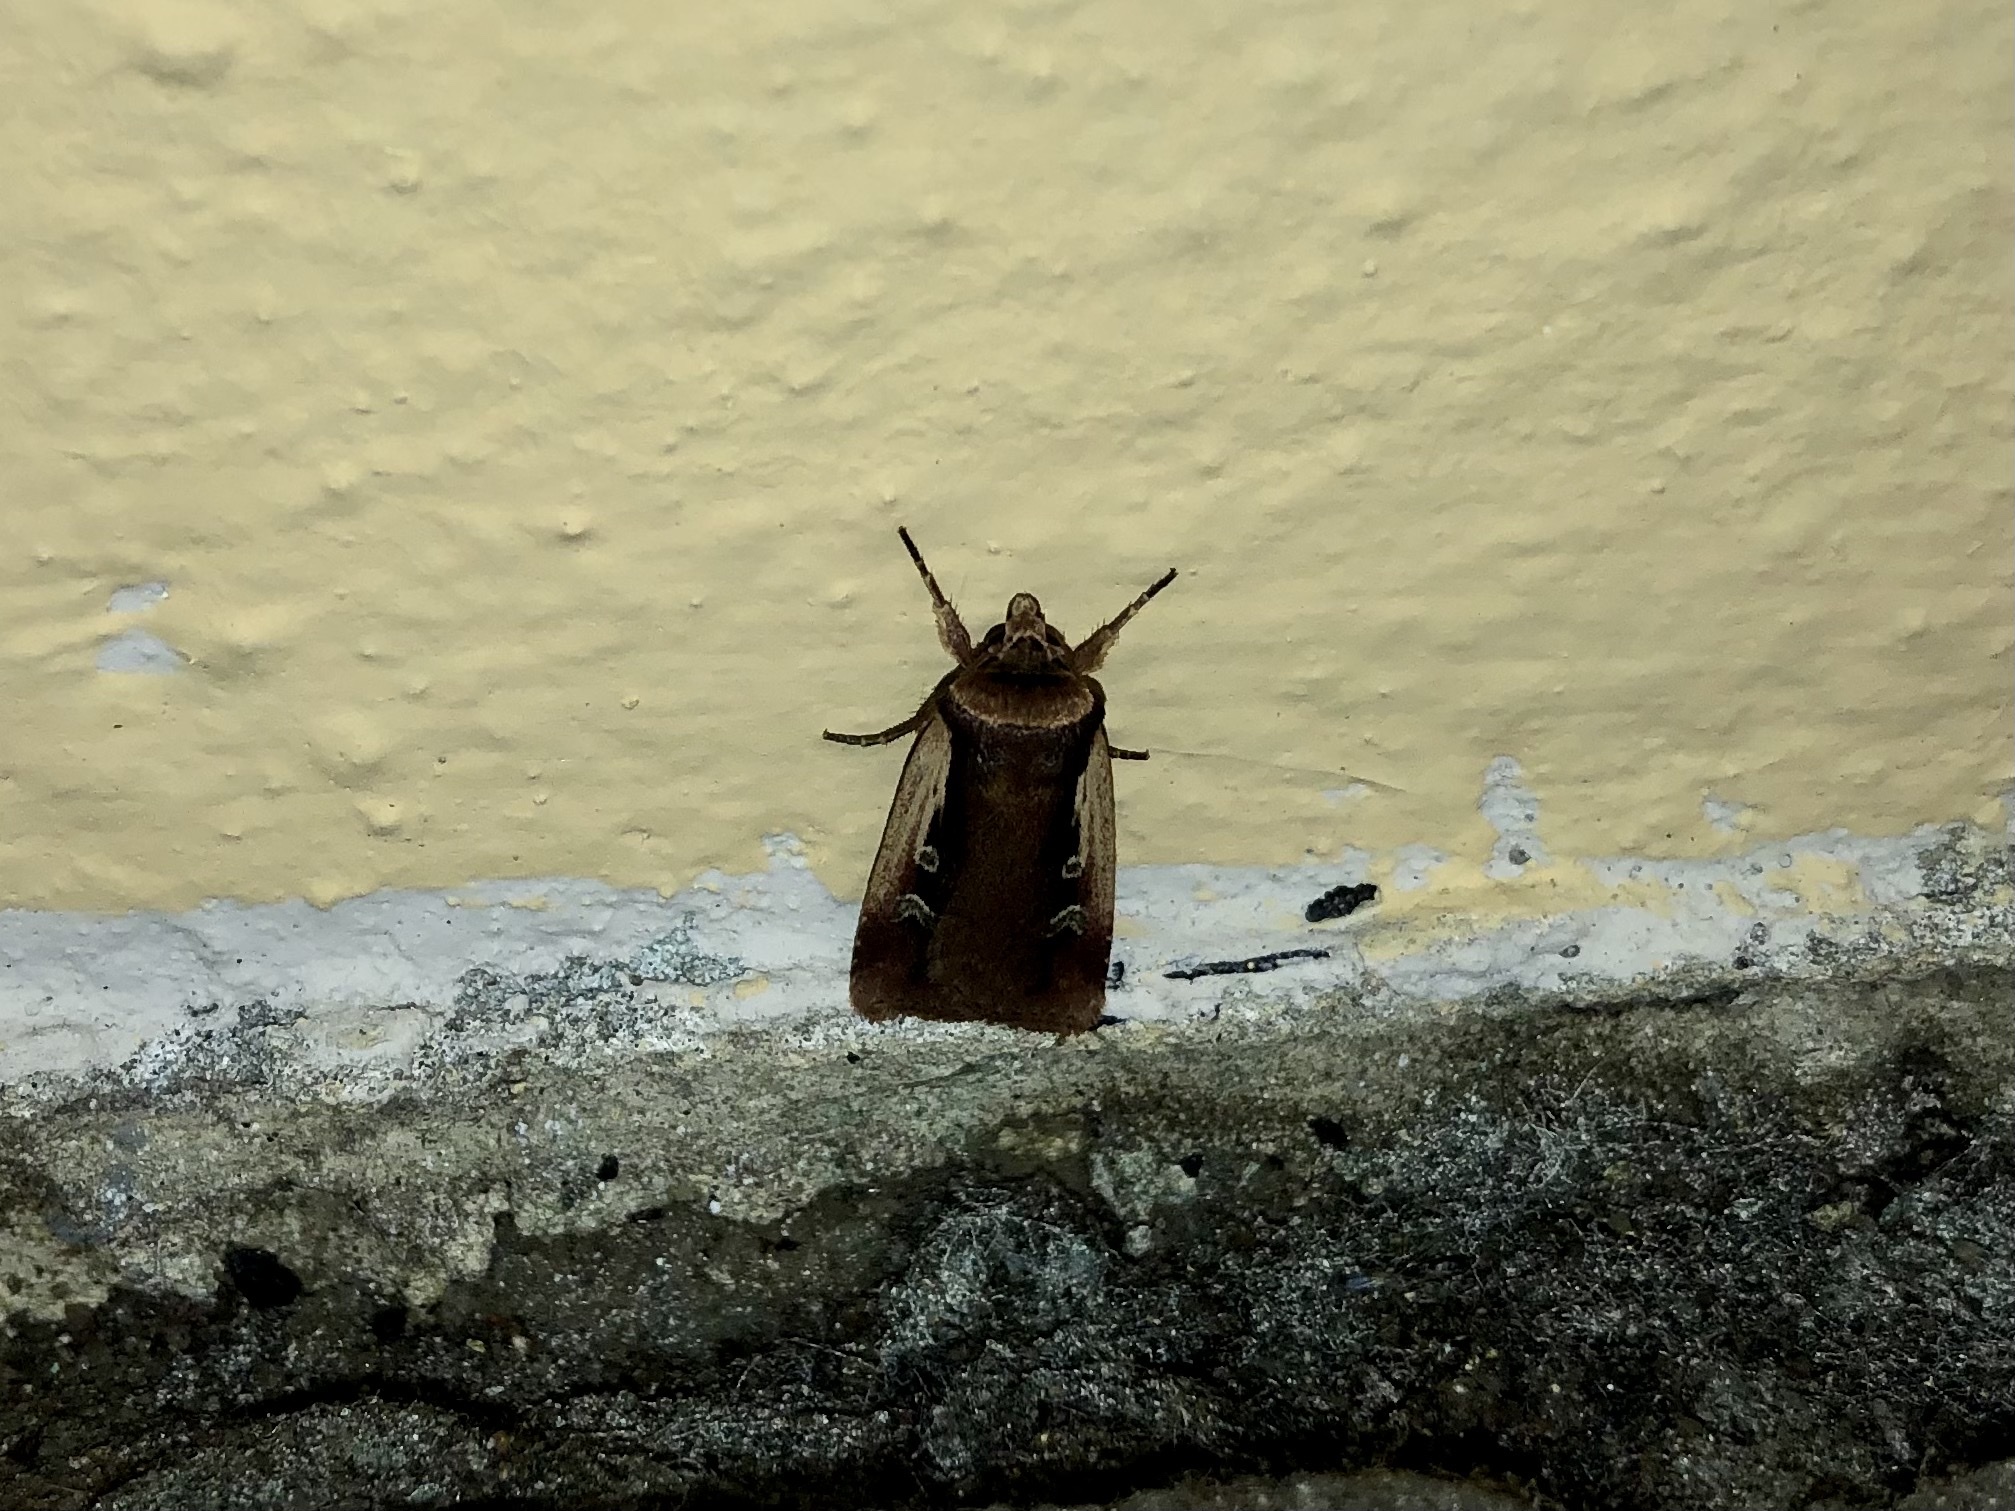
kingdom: Animalia
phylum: Arthropoda
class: Insecta
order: Lepidoptera
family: Noctuidae
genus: Ochropleura
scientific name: Ochropleura plecta
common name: Flame shoulder
